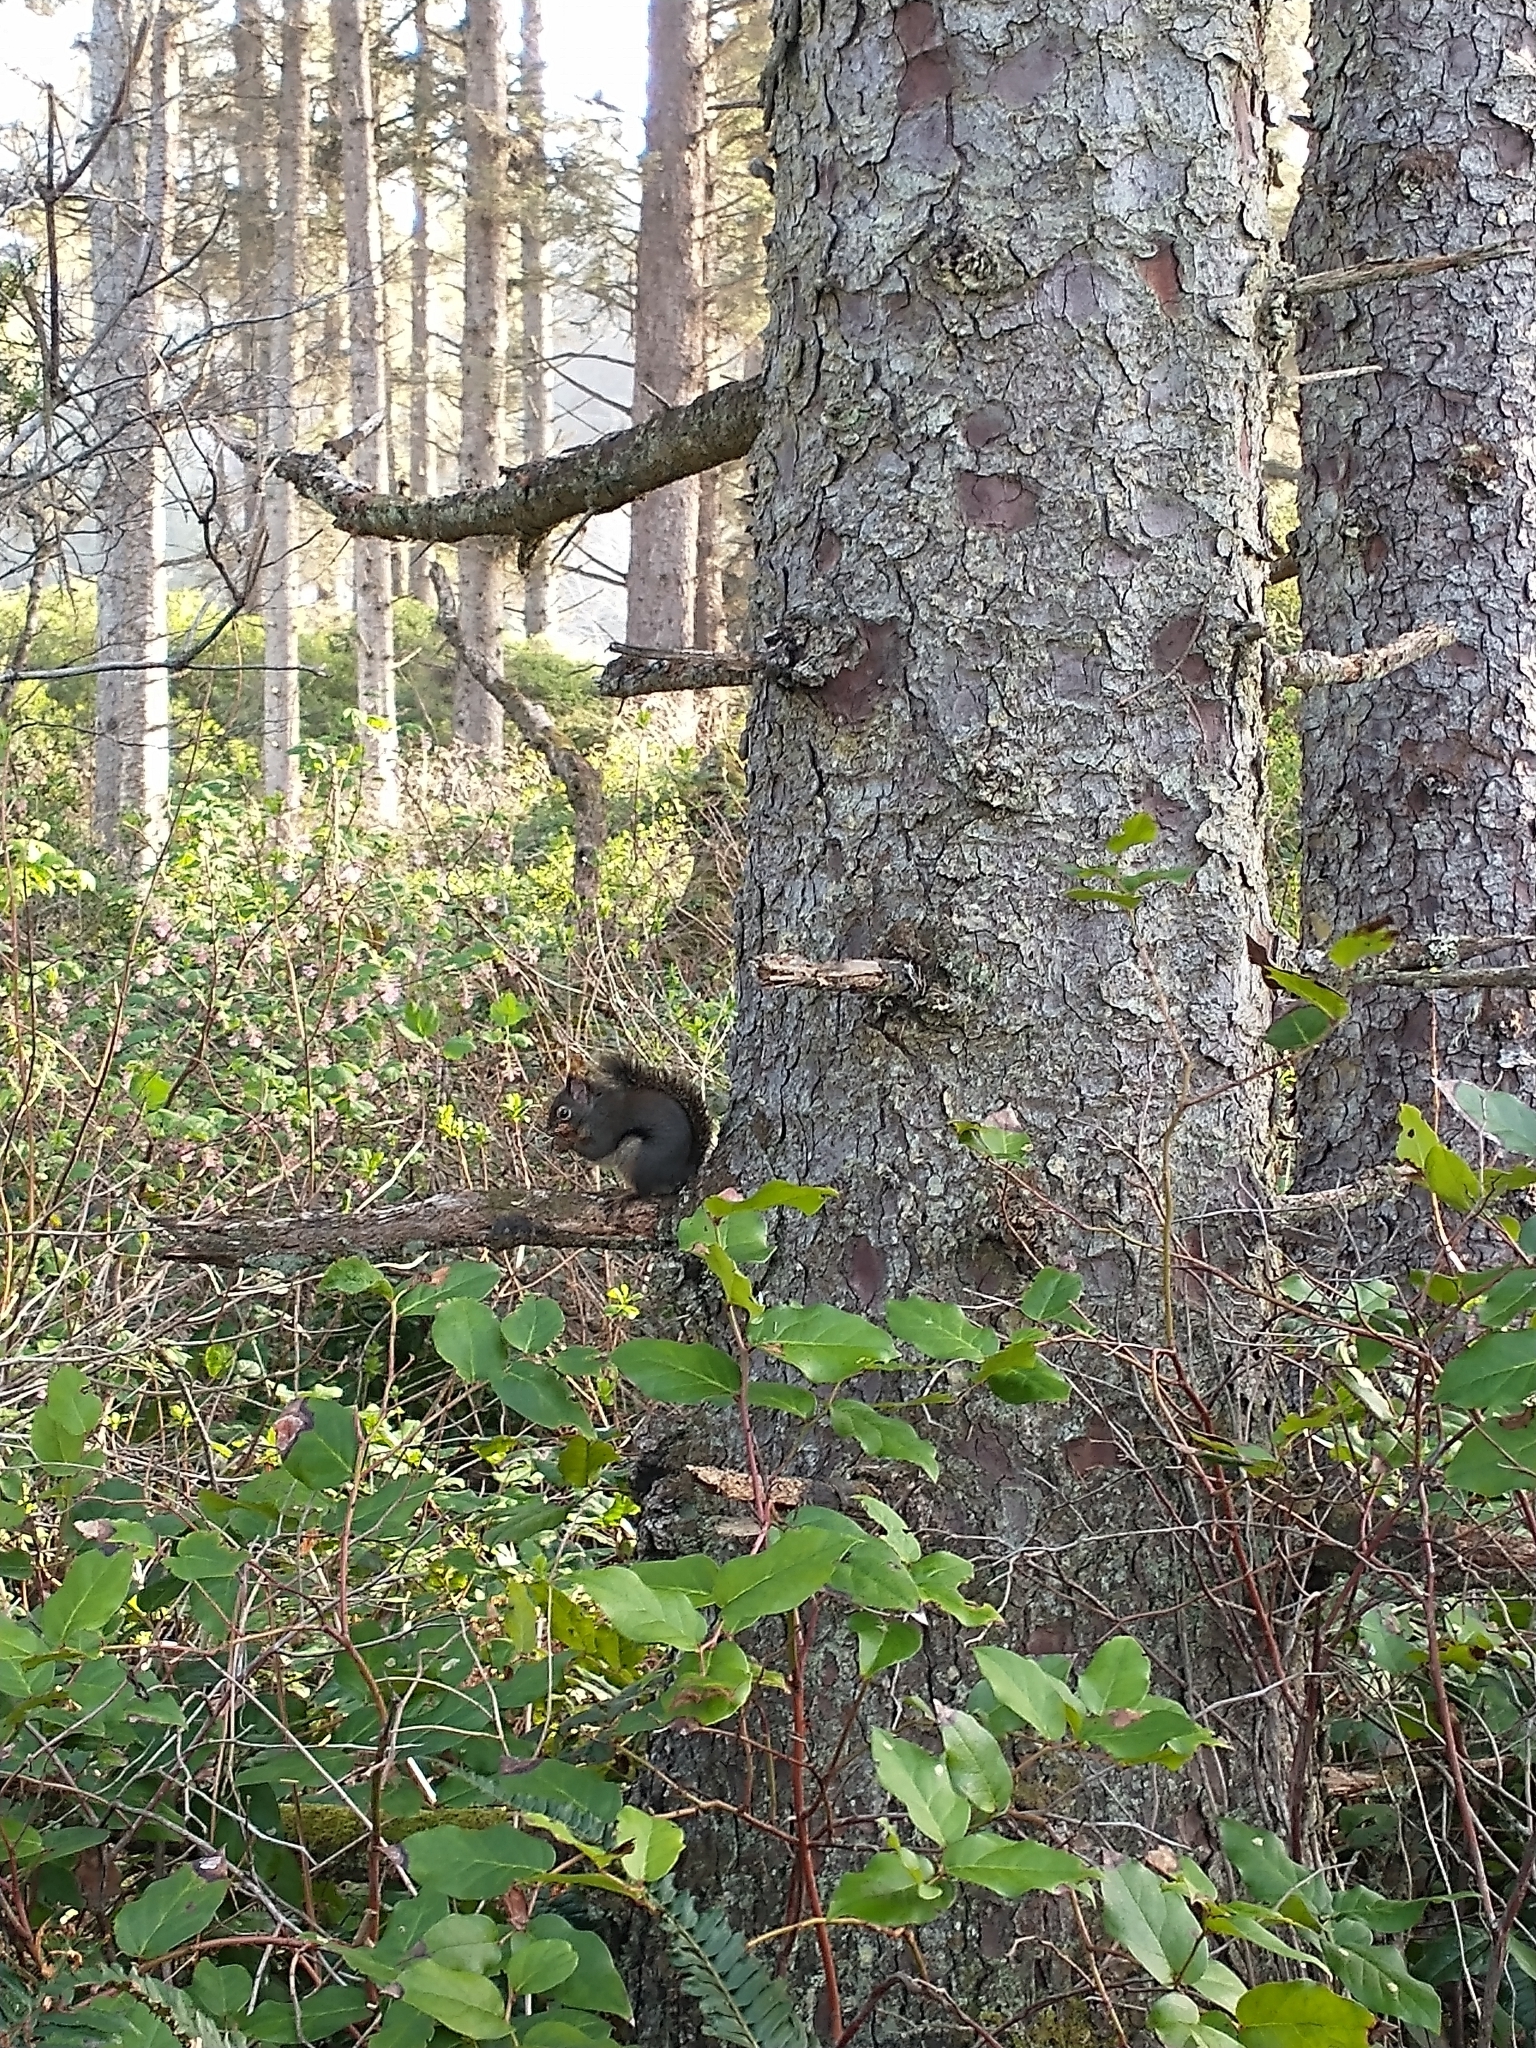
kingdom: Plantae
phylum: Tracheophyta
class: Magnoliopsida
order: Ericales
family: Ericaceae
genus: Gaultheria
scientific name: Gaultheria shallon
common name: Shallon
